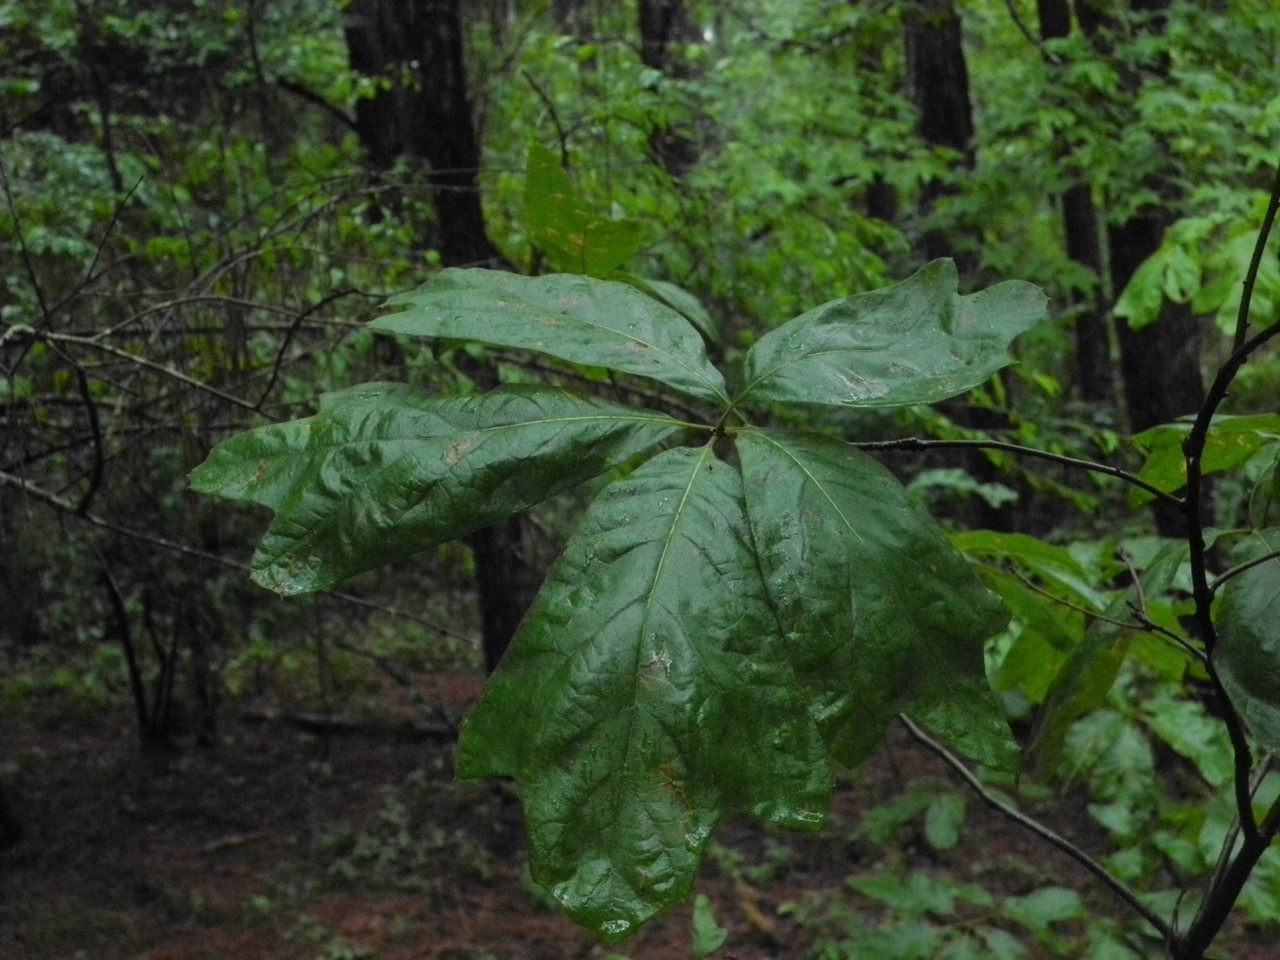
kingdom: Plantae
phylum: Tracheophyta
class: Magnoliopsida
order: Fagales
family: Fagaceae
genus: Quercus
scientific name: Quercus marilandica
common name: Blackjack oak
